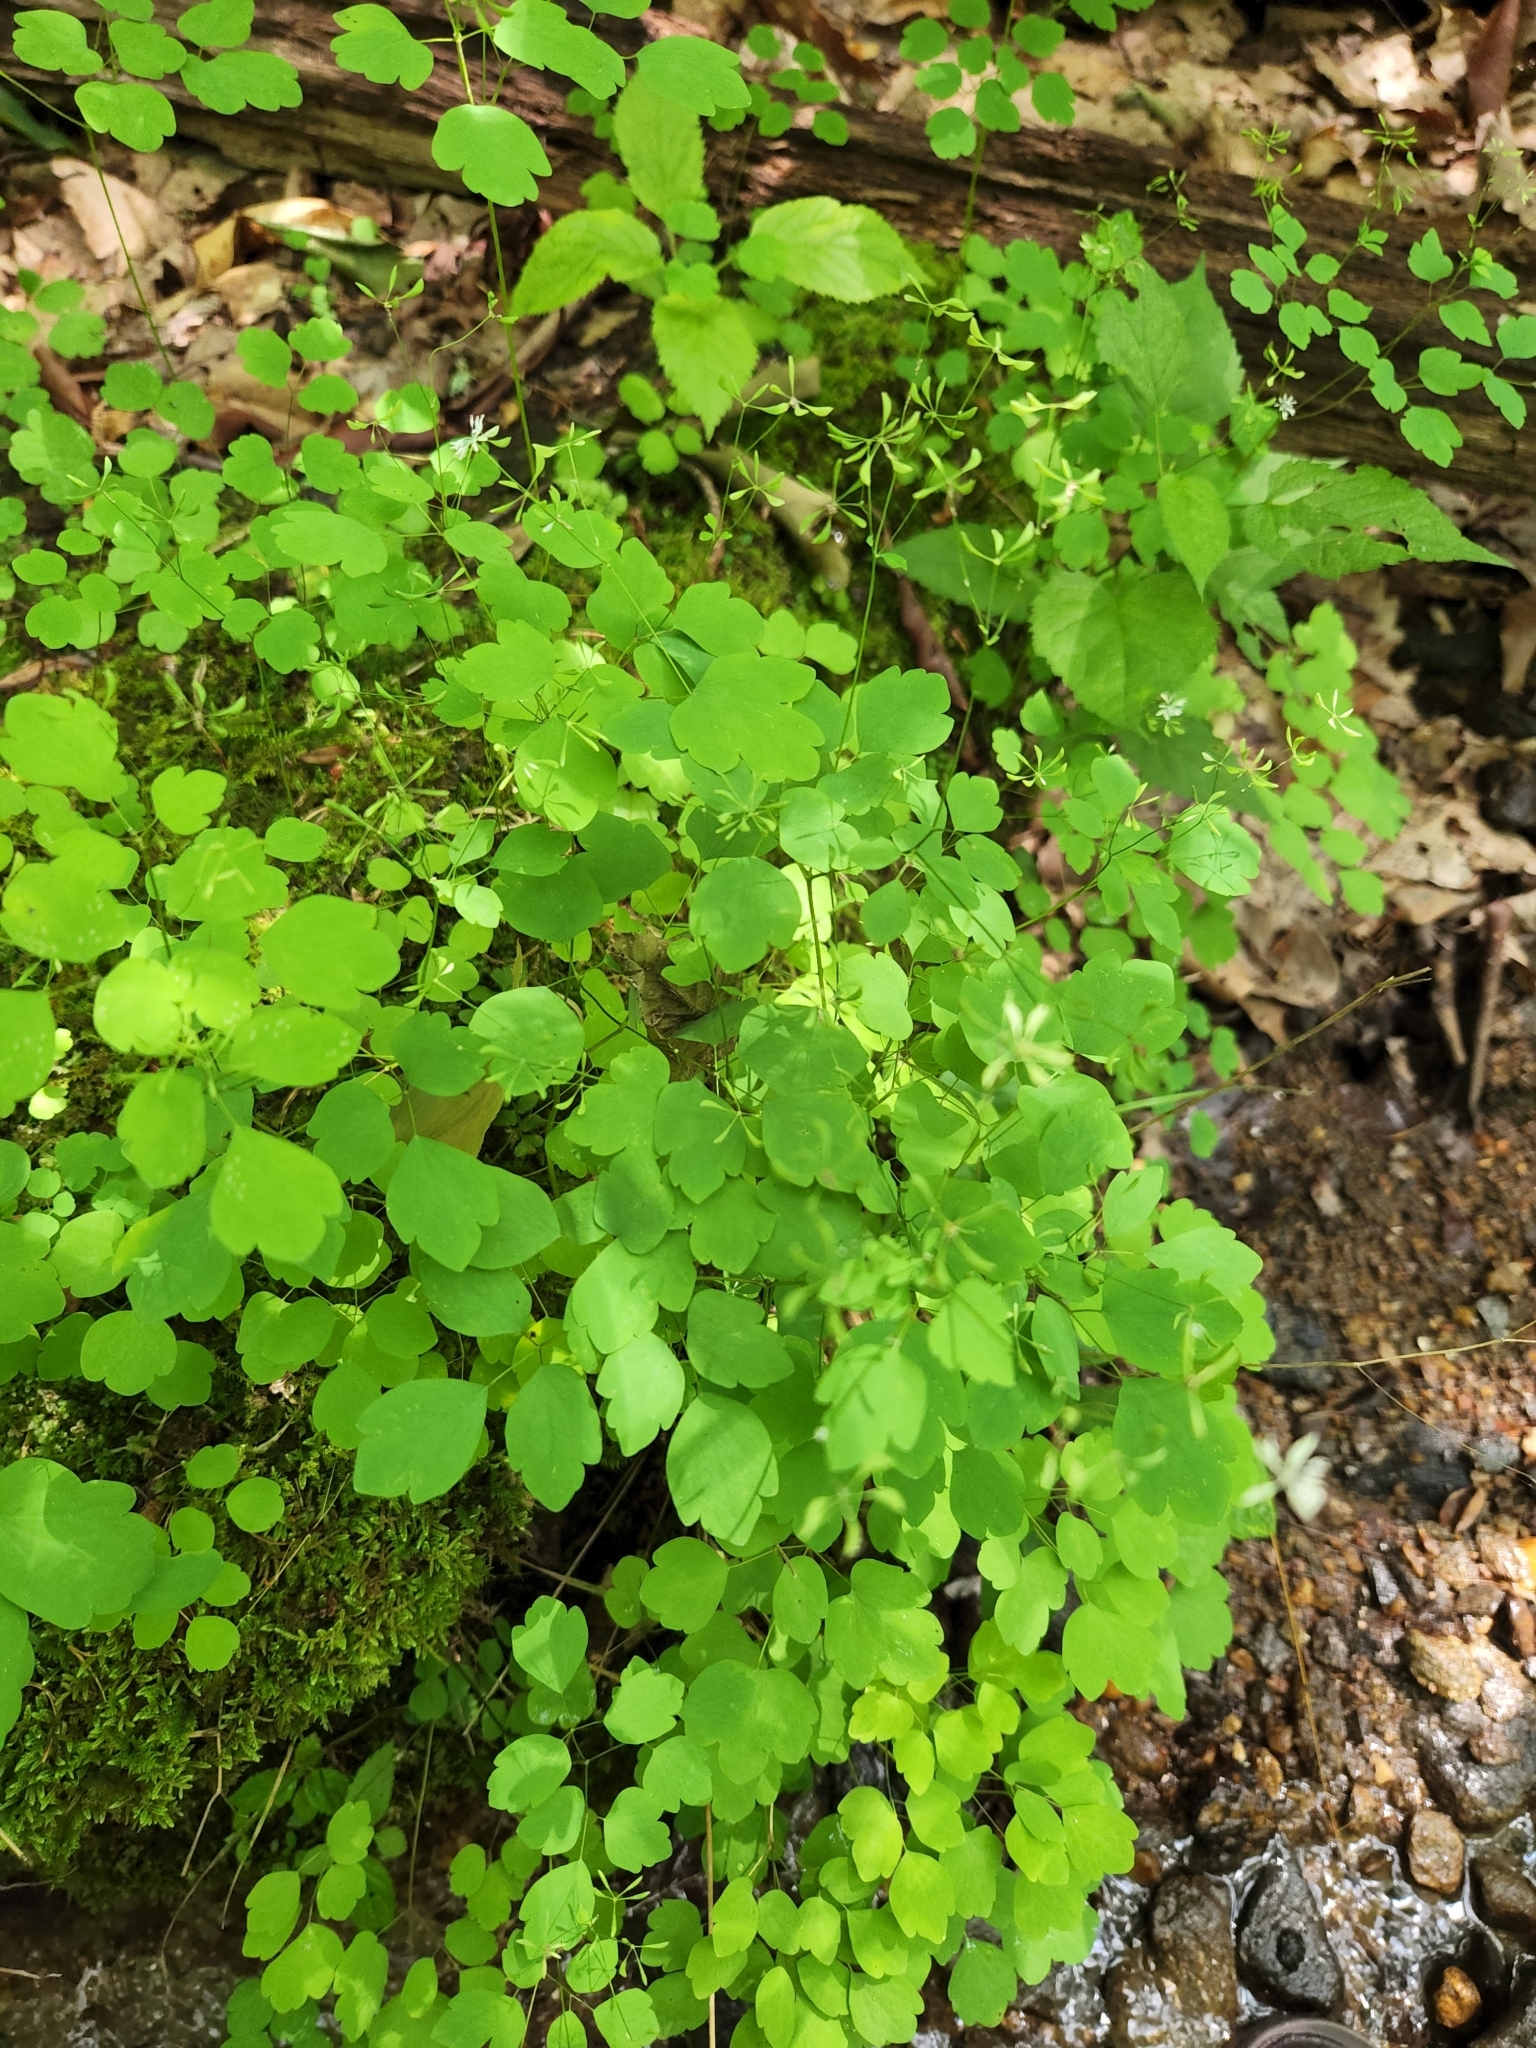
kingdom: Plantae
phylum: Tracheophyta
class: Magnoliopsida
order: Ranunculales
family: Ranunculaceae
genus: Thalictrum
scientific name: Thalictrum clavatum
